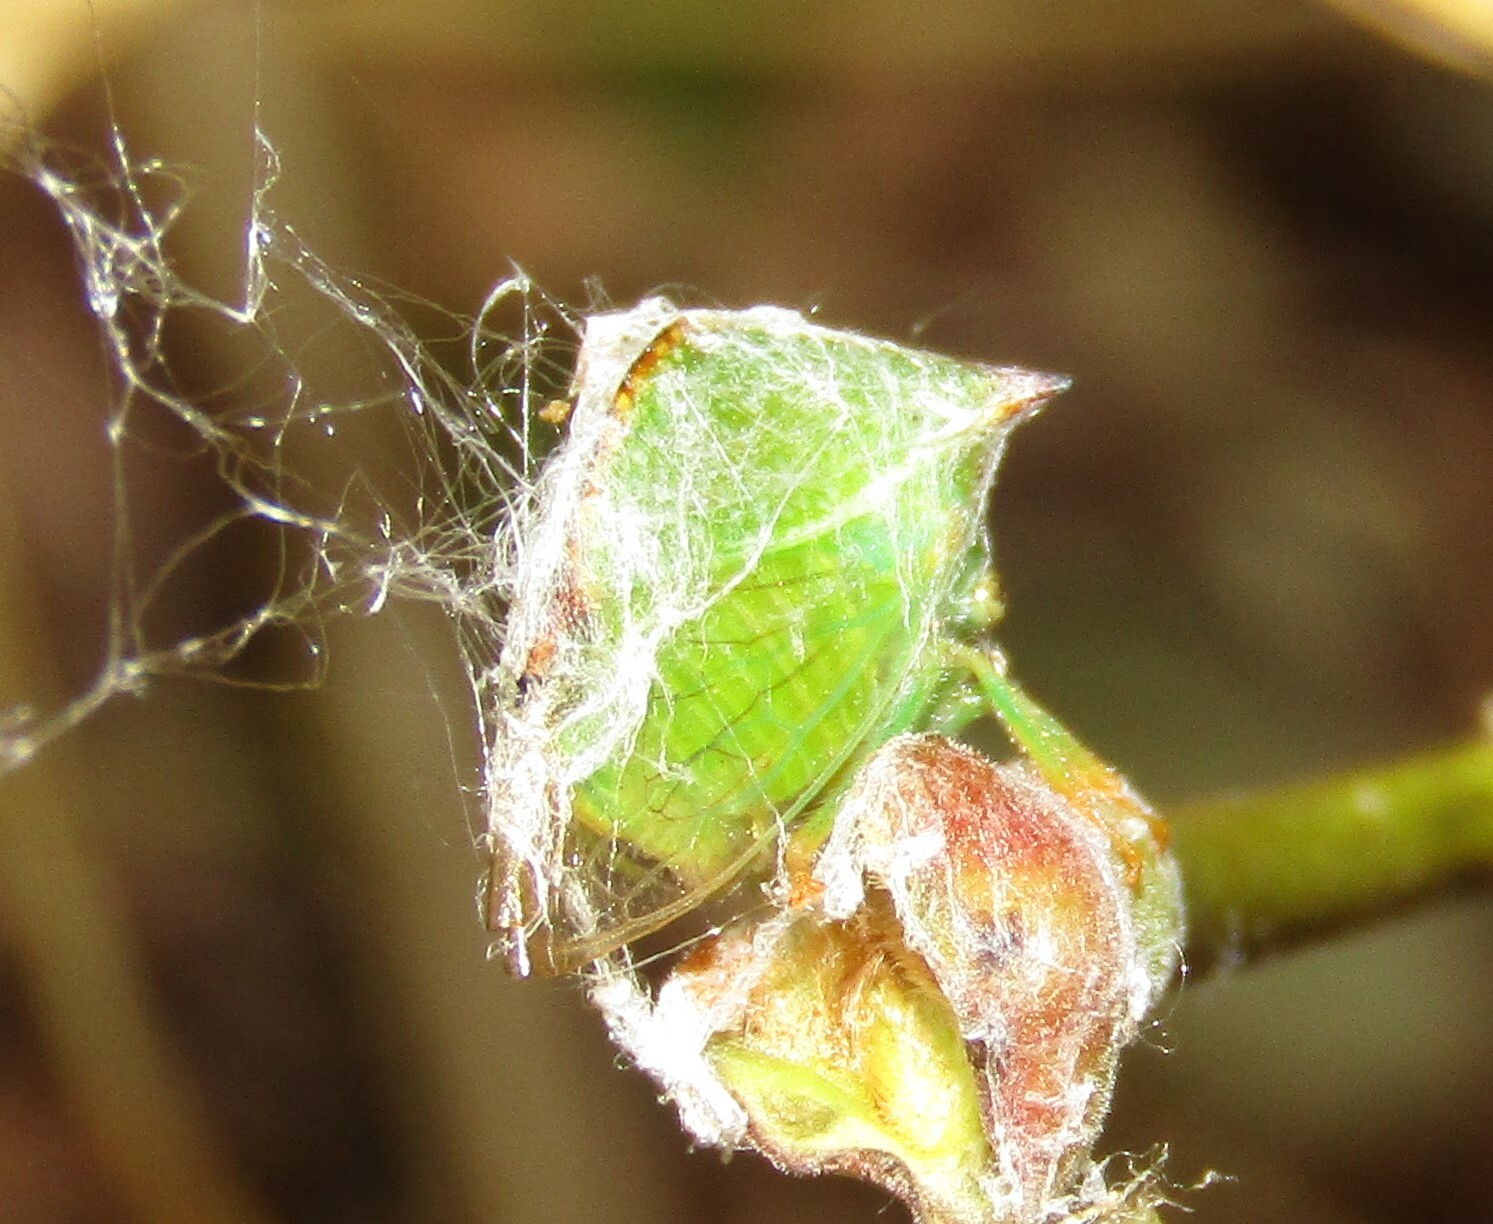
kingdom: Animalia
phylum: Arthropoda
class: Insecta
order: Hemiptera
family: Membracidae
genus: Stictocephala
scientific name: Stictocephala bisonia
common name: American buffalo treehopper
